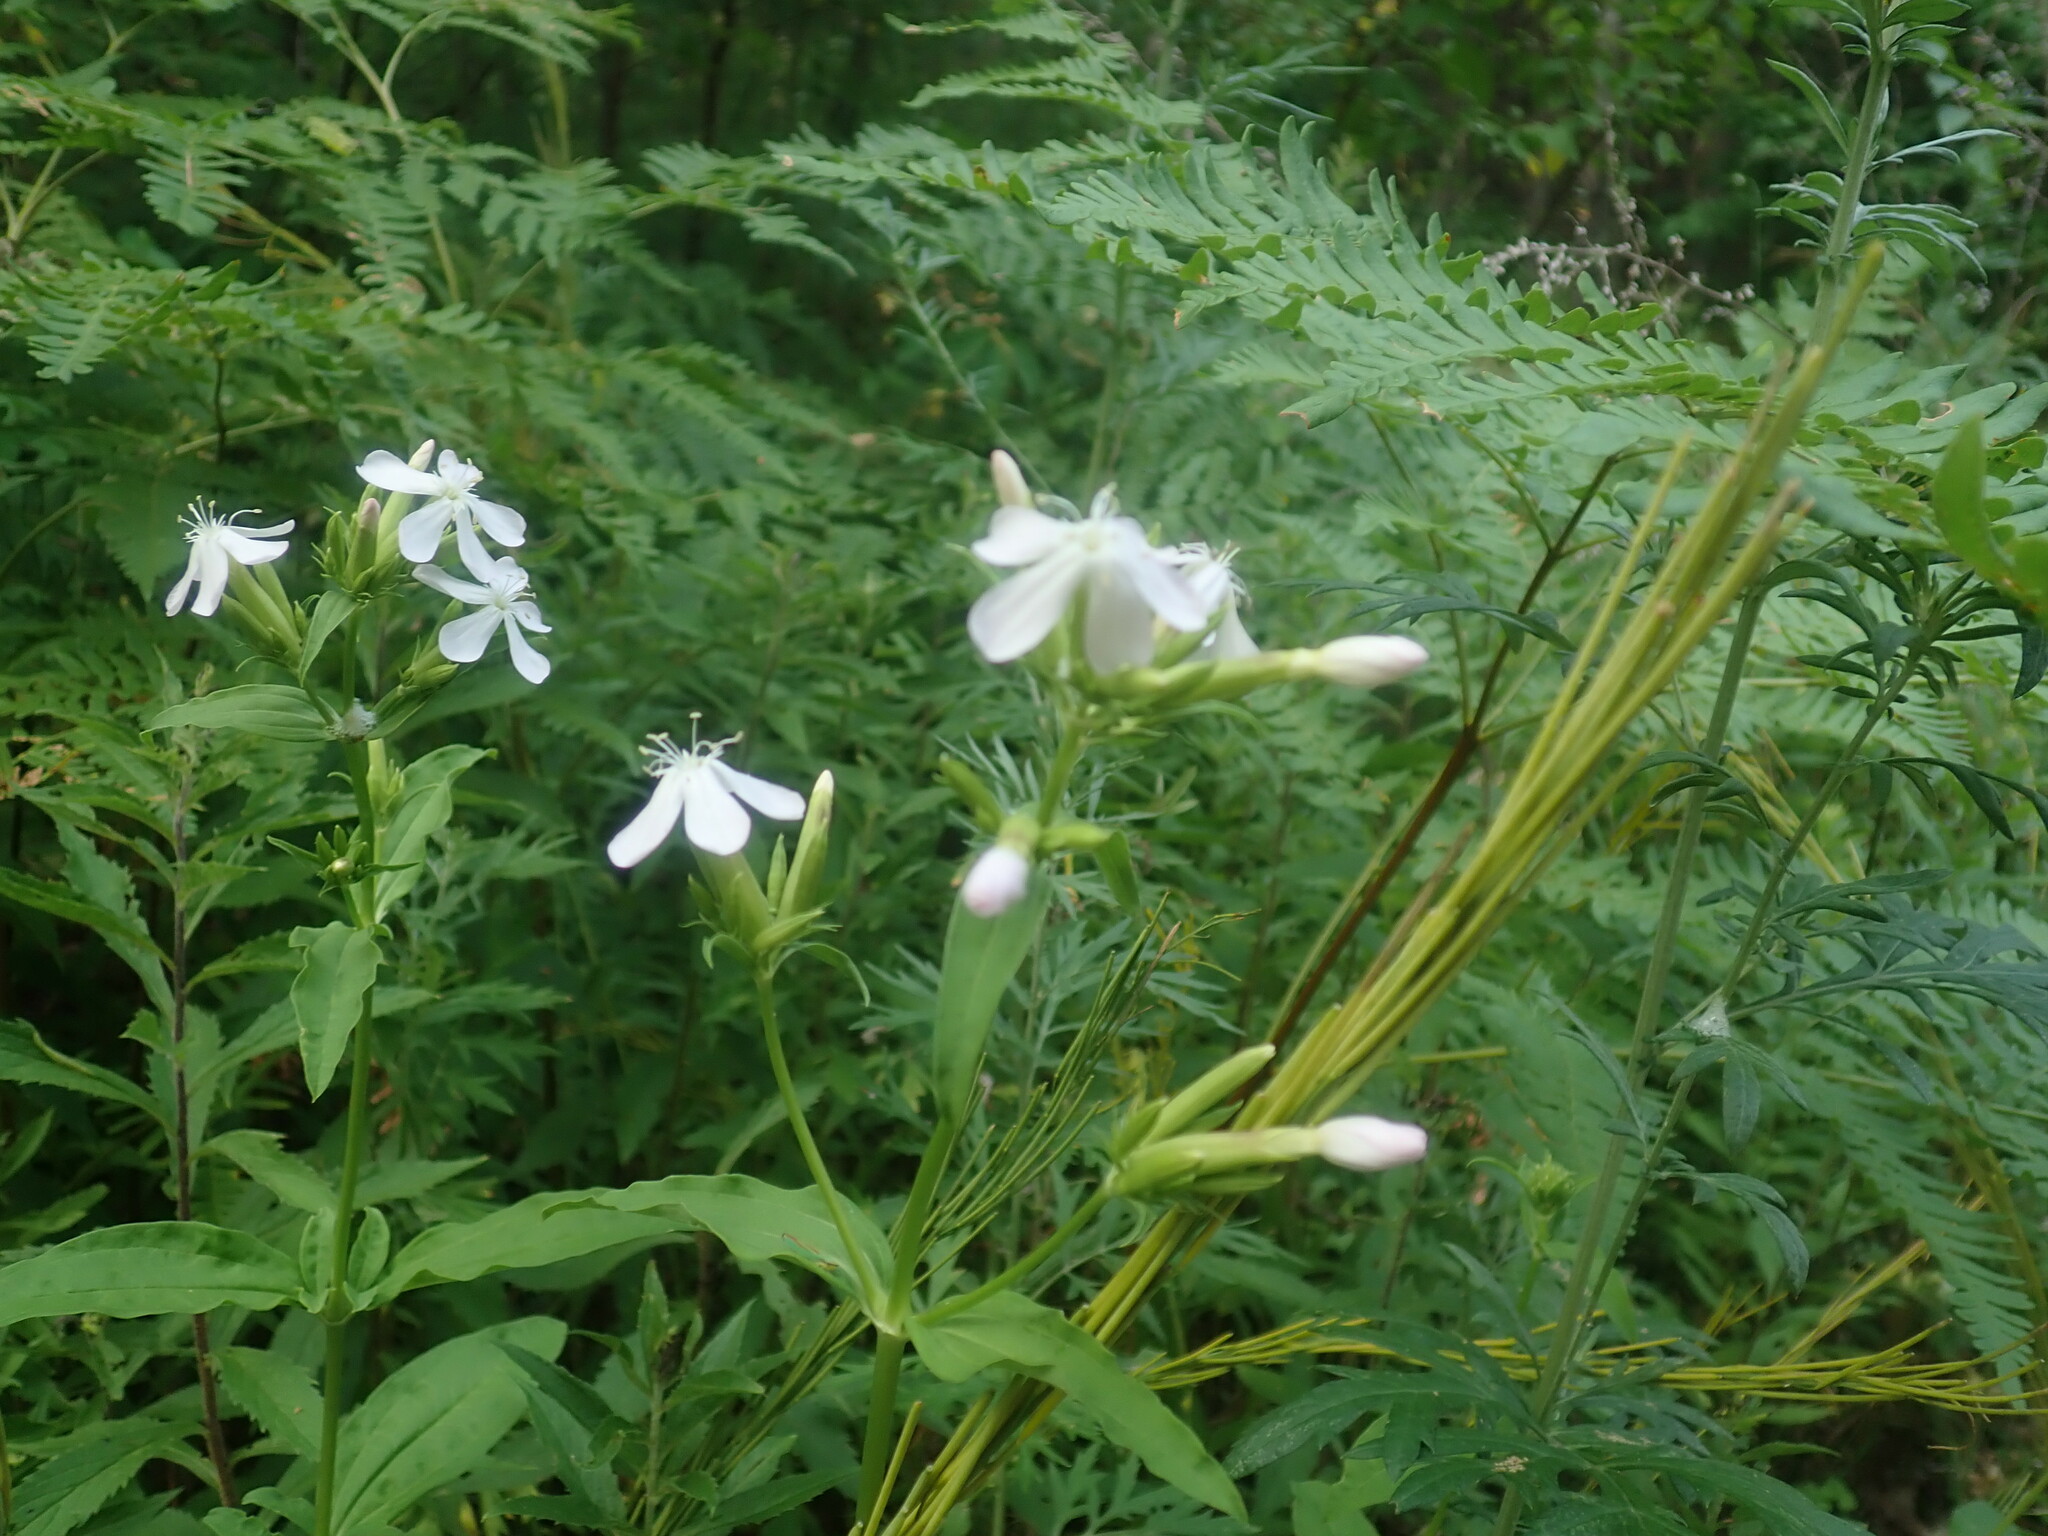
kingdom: Plantae
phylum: Tracheophyta
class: Magnoliopsida
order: Caryophyllales
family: Caryophyllaceae
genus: Saponaria
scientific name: Saponaria officinalis
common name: Soapwort
